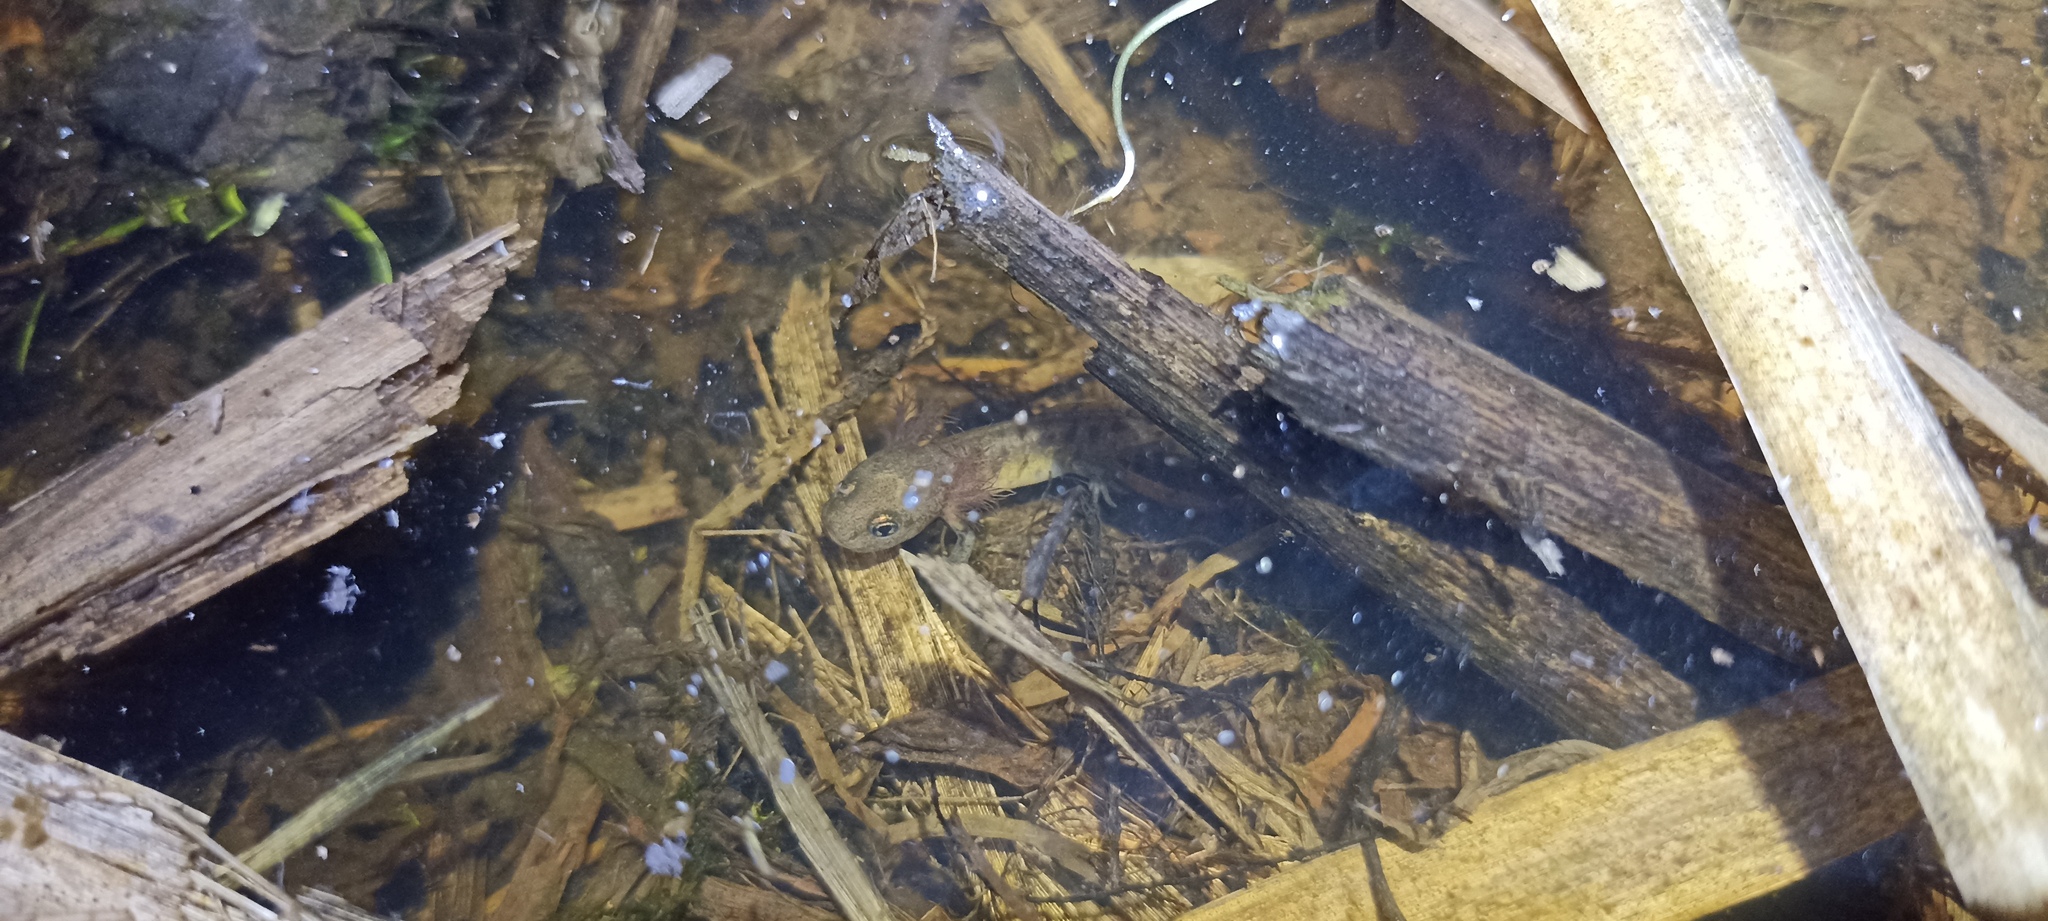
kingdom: Animalia
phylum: Chordata
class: Amphibia
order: Caudata
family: Salamandridae
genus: Salamandra
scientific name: Salamandra salamandra
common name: Fire salamander
